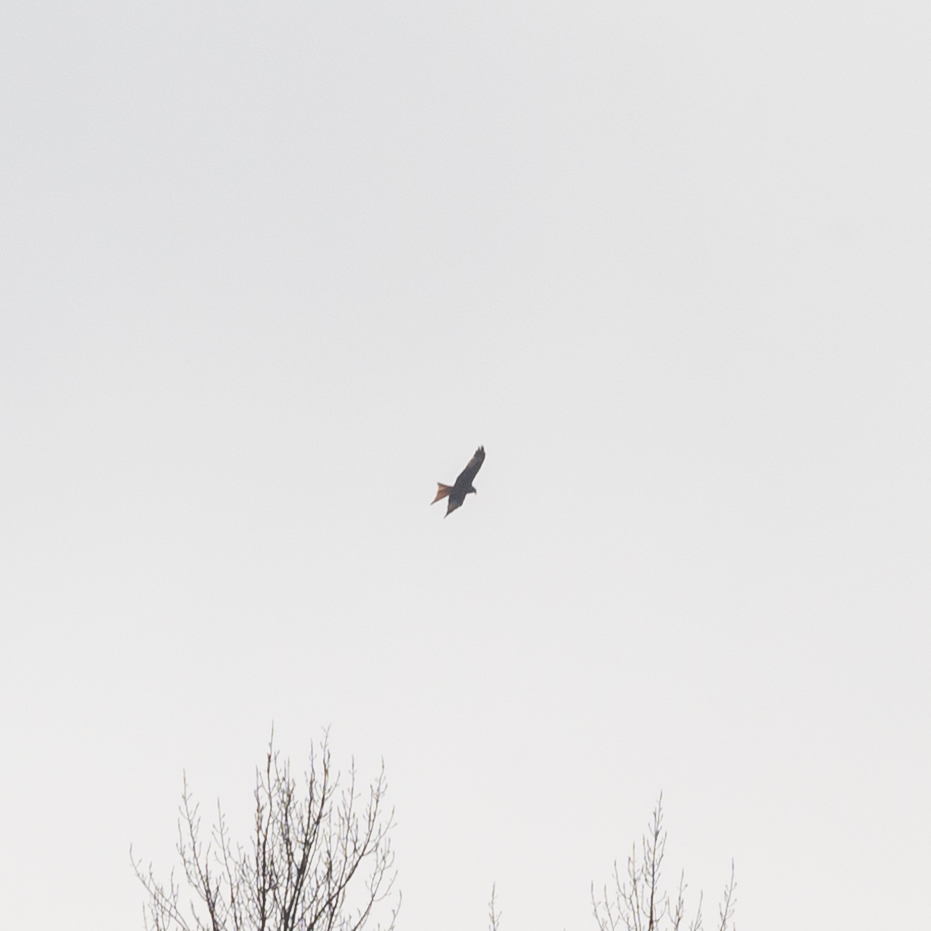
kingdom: Animalia
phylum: Chordata
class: Aves
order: Accipitriformes
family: Accipitridae
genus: Milvus
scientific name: Milvus milvus
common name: Red kite
